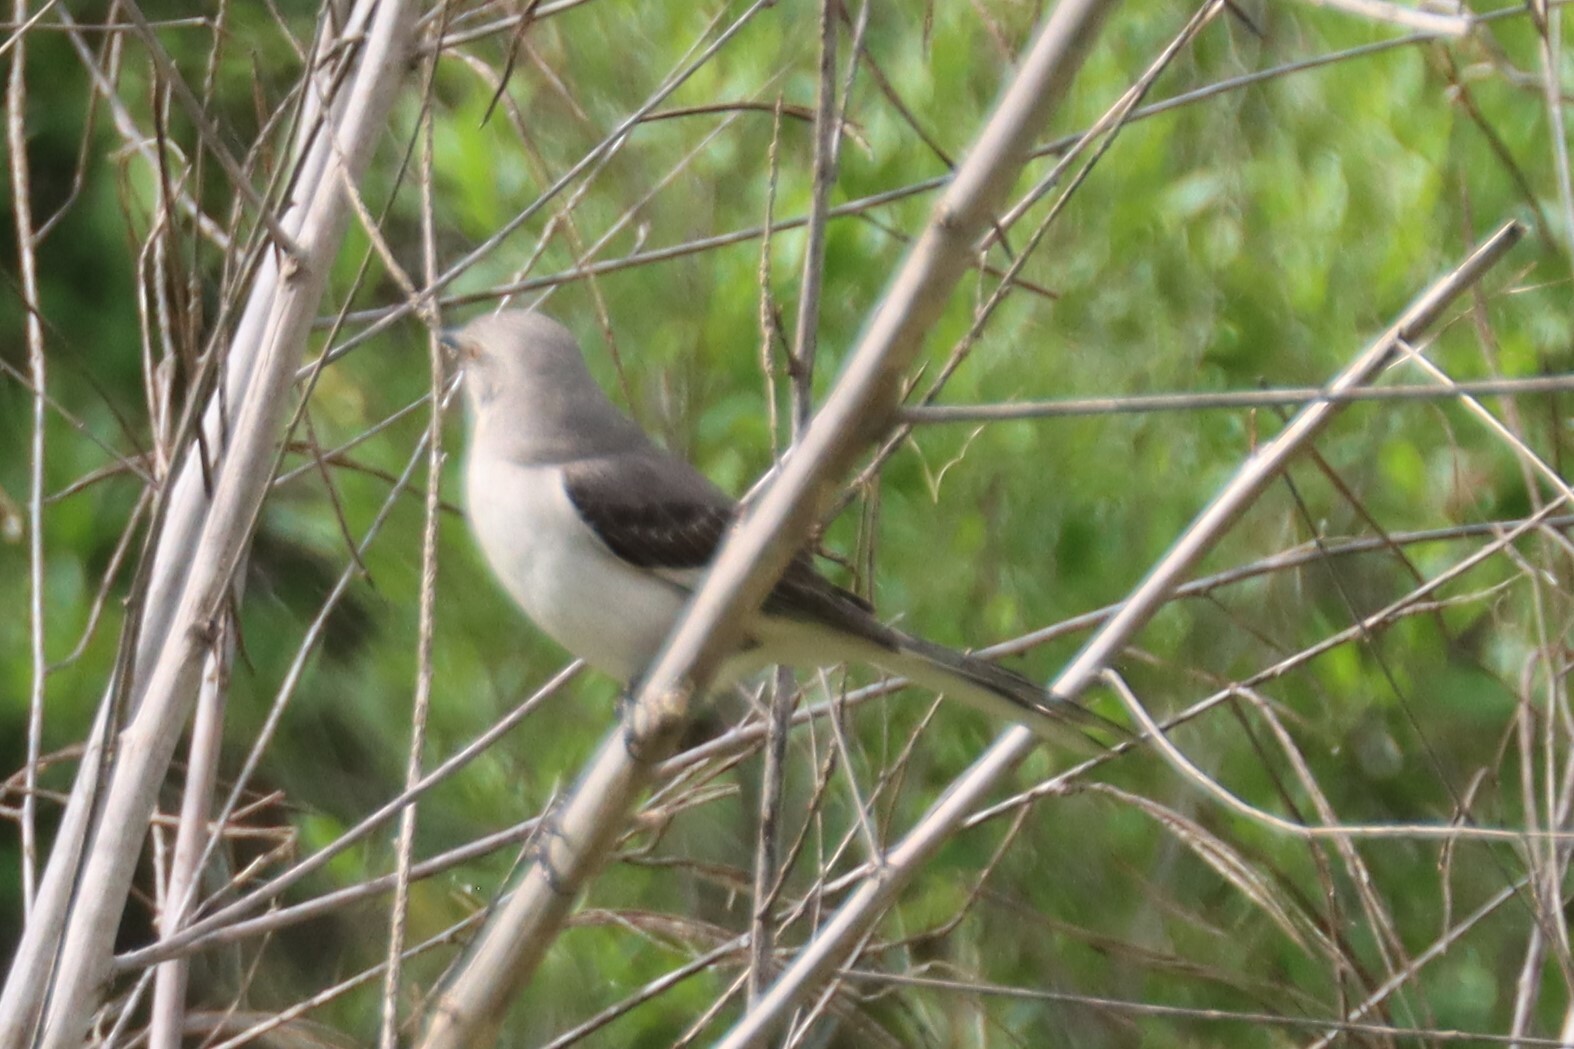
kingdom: Animalia
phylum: Chordata
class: Aves
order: Passeriformes
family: Mimidae
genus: Mimus
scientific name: Mimus polyglottos
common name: Northern mockingbird
